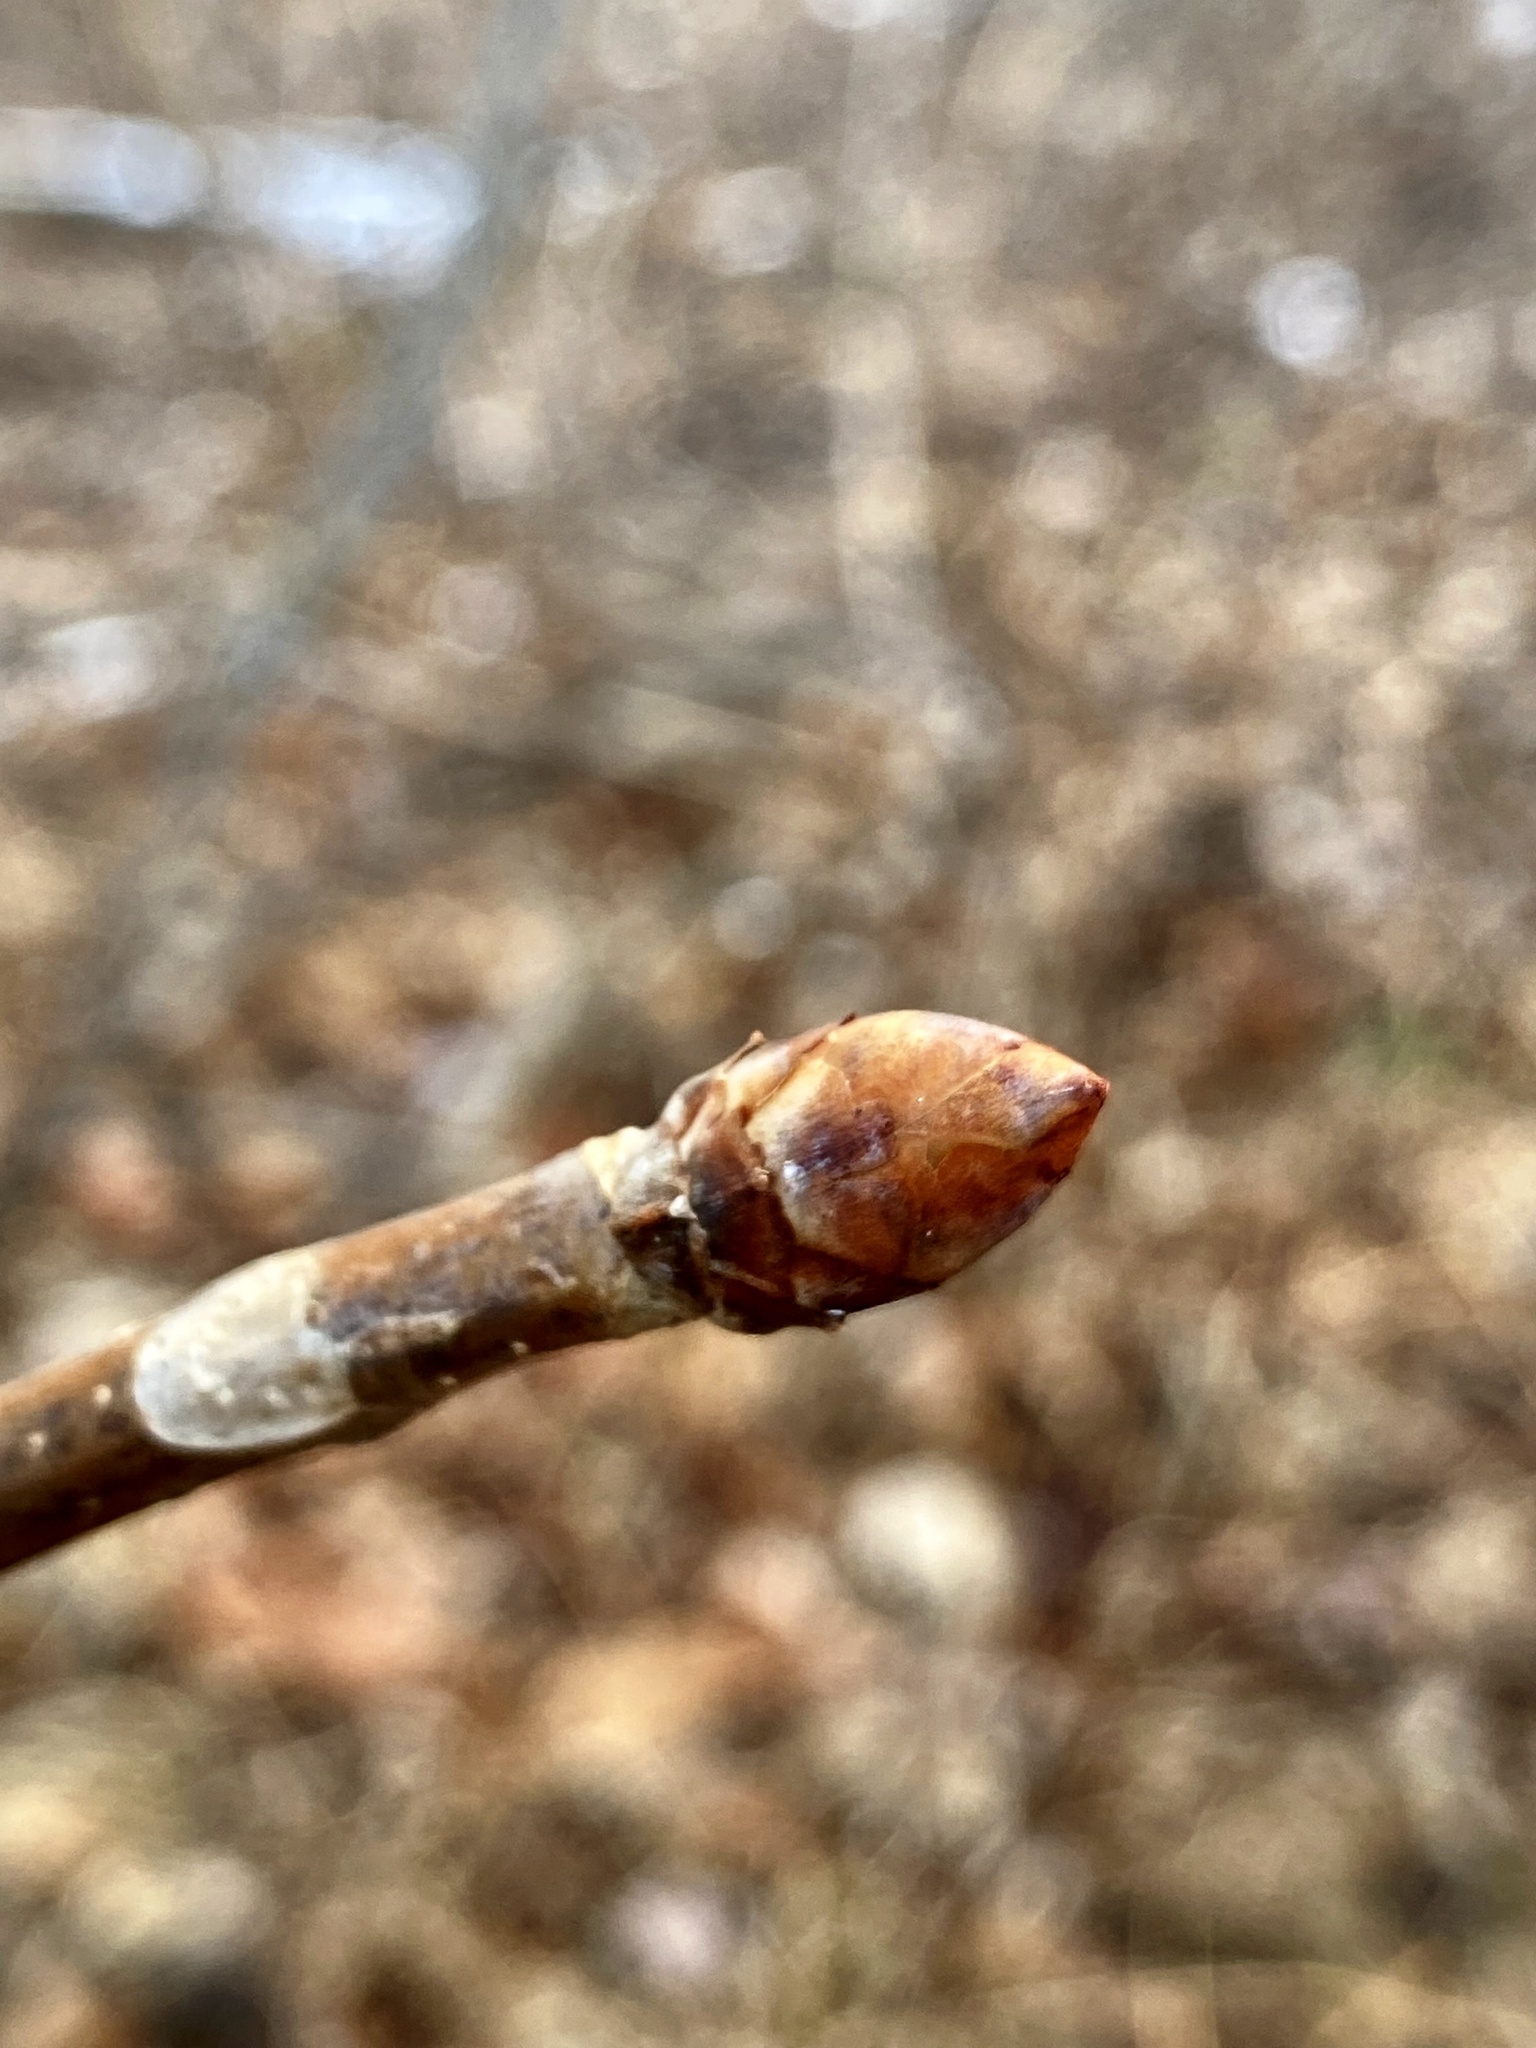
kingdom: Plantae
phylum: Tracheophyta
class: Magnoliopsida
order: Sapindales
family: Sapindaceae
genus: Aesculus
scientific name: Aesculus flava
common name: Yellow buckeye
